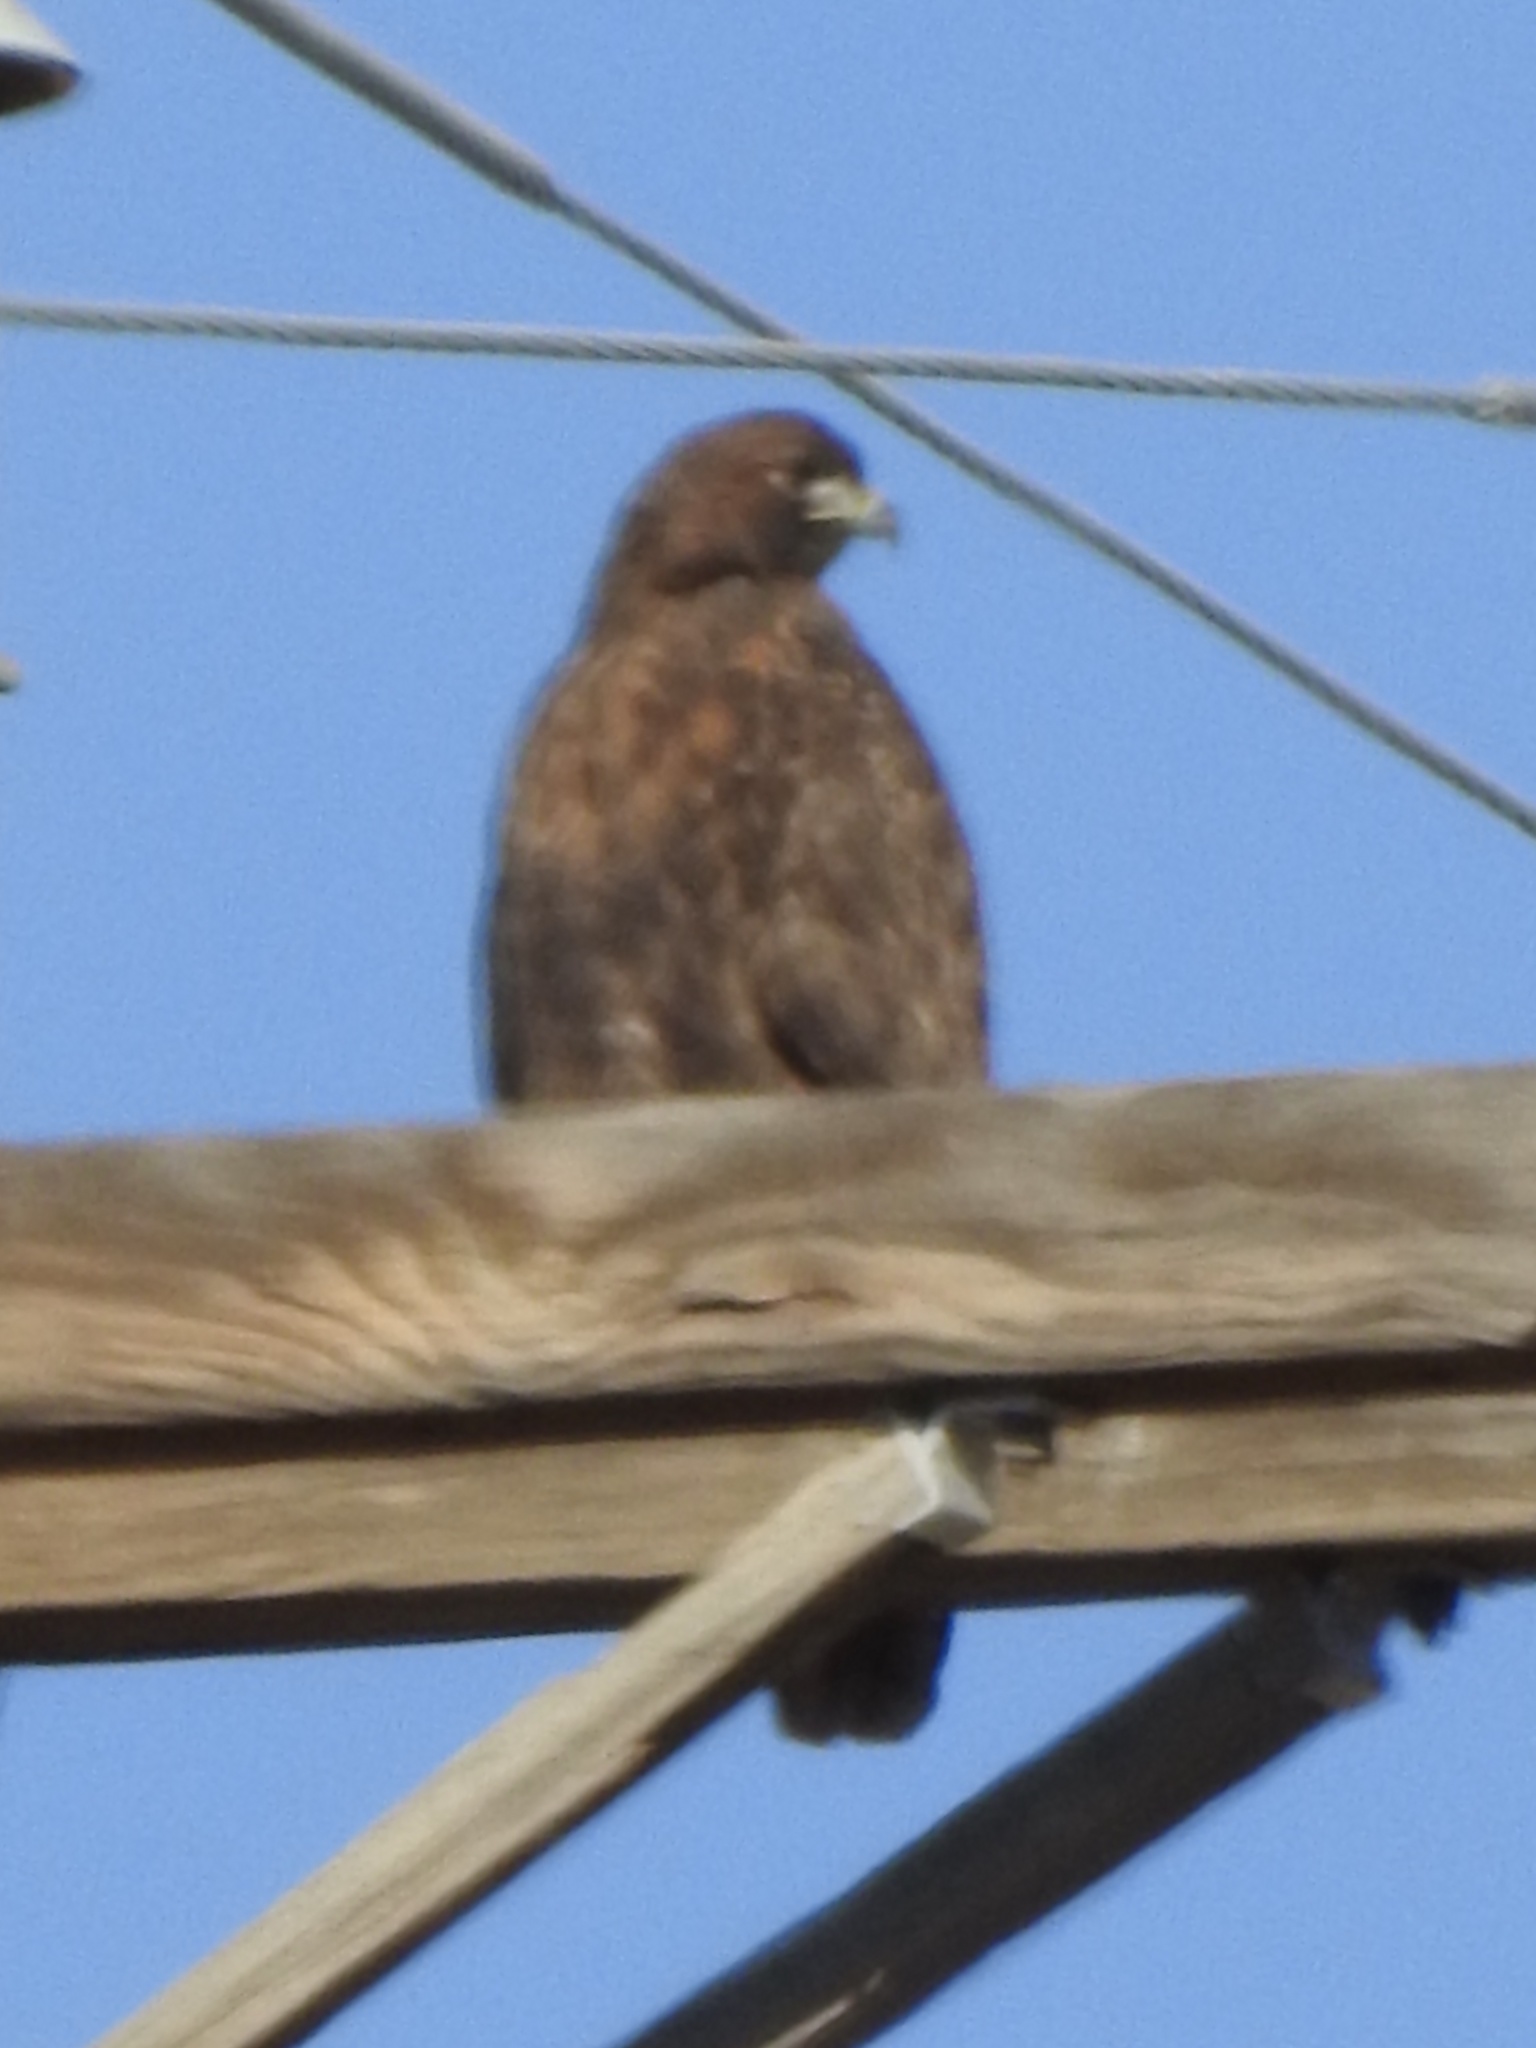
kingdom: Animalia
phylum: Chordata
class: Aves
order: Accipitriformes
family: Accipitridae
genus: Buteo
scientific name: Buteo jamaicensis
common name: Red-tailed hawk
